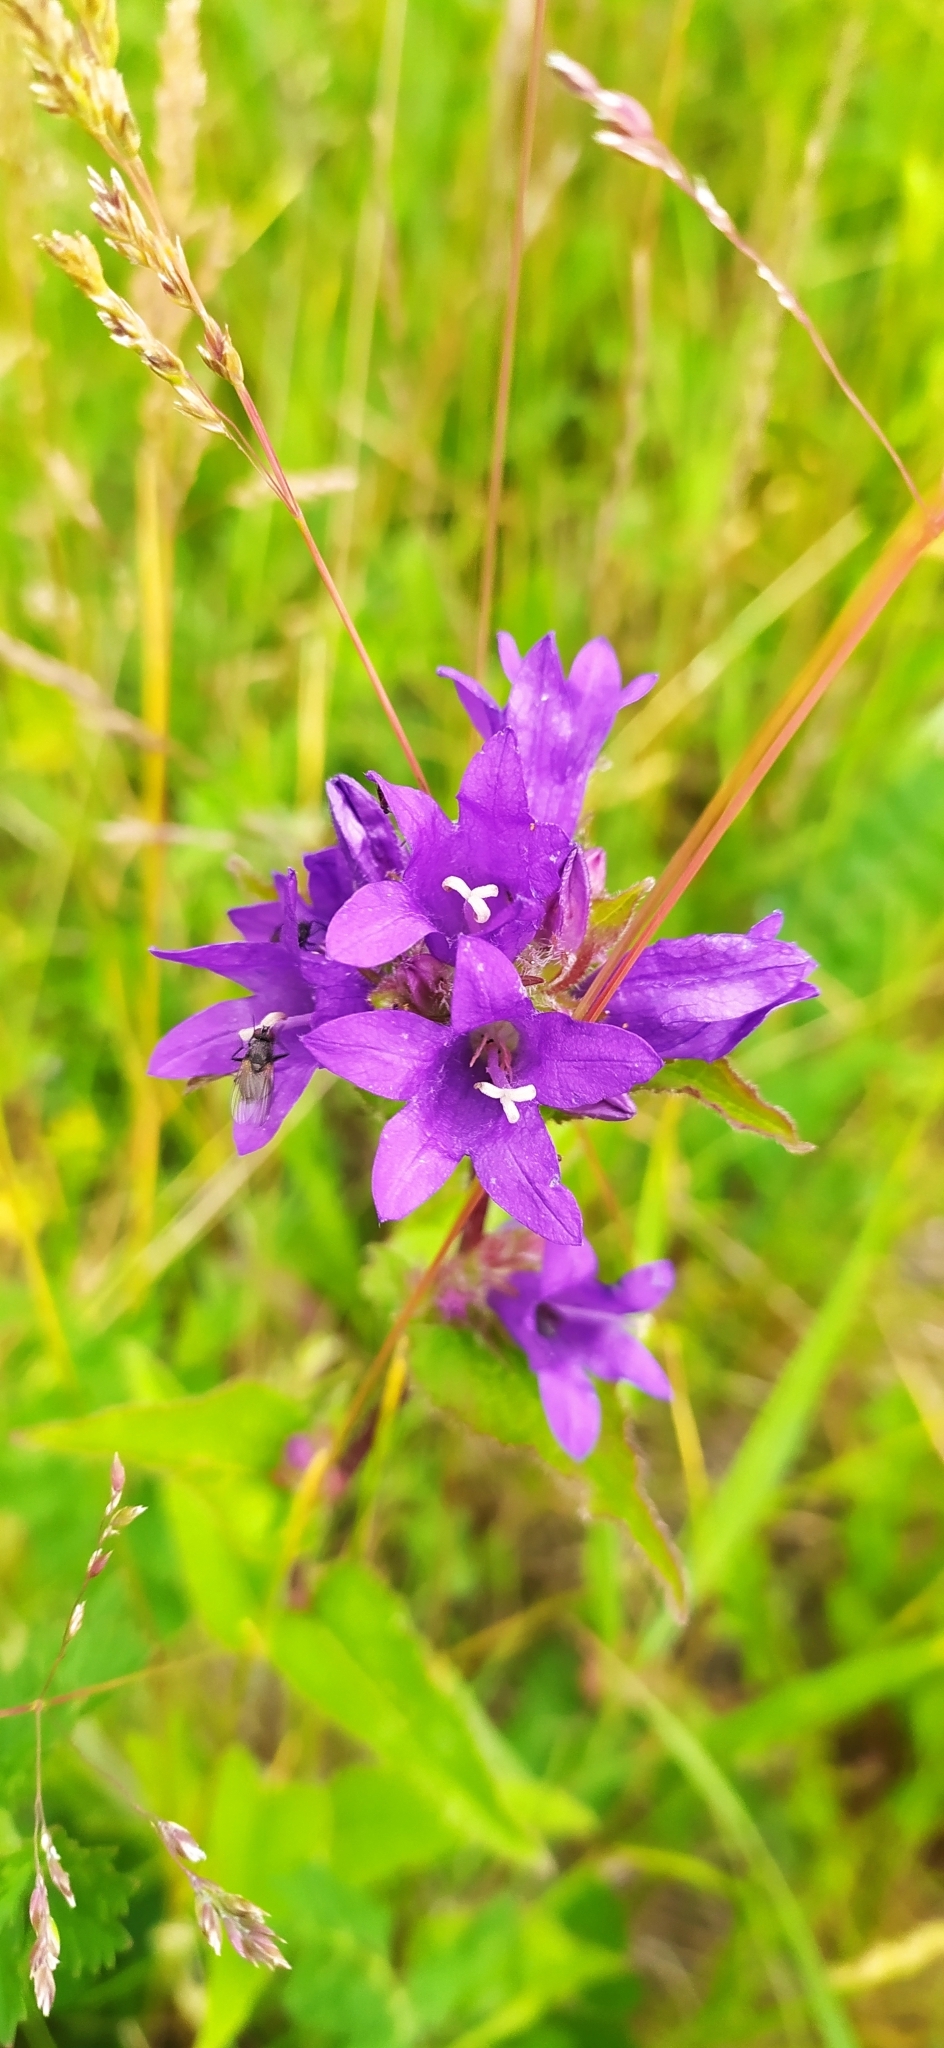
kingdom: Plantae
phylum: Tracheophyta
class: Magnoliopsida
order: Asterales
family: Campanulaceae
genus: Campanula
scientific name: Campanula glomerata
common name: Clustered bellflower
